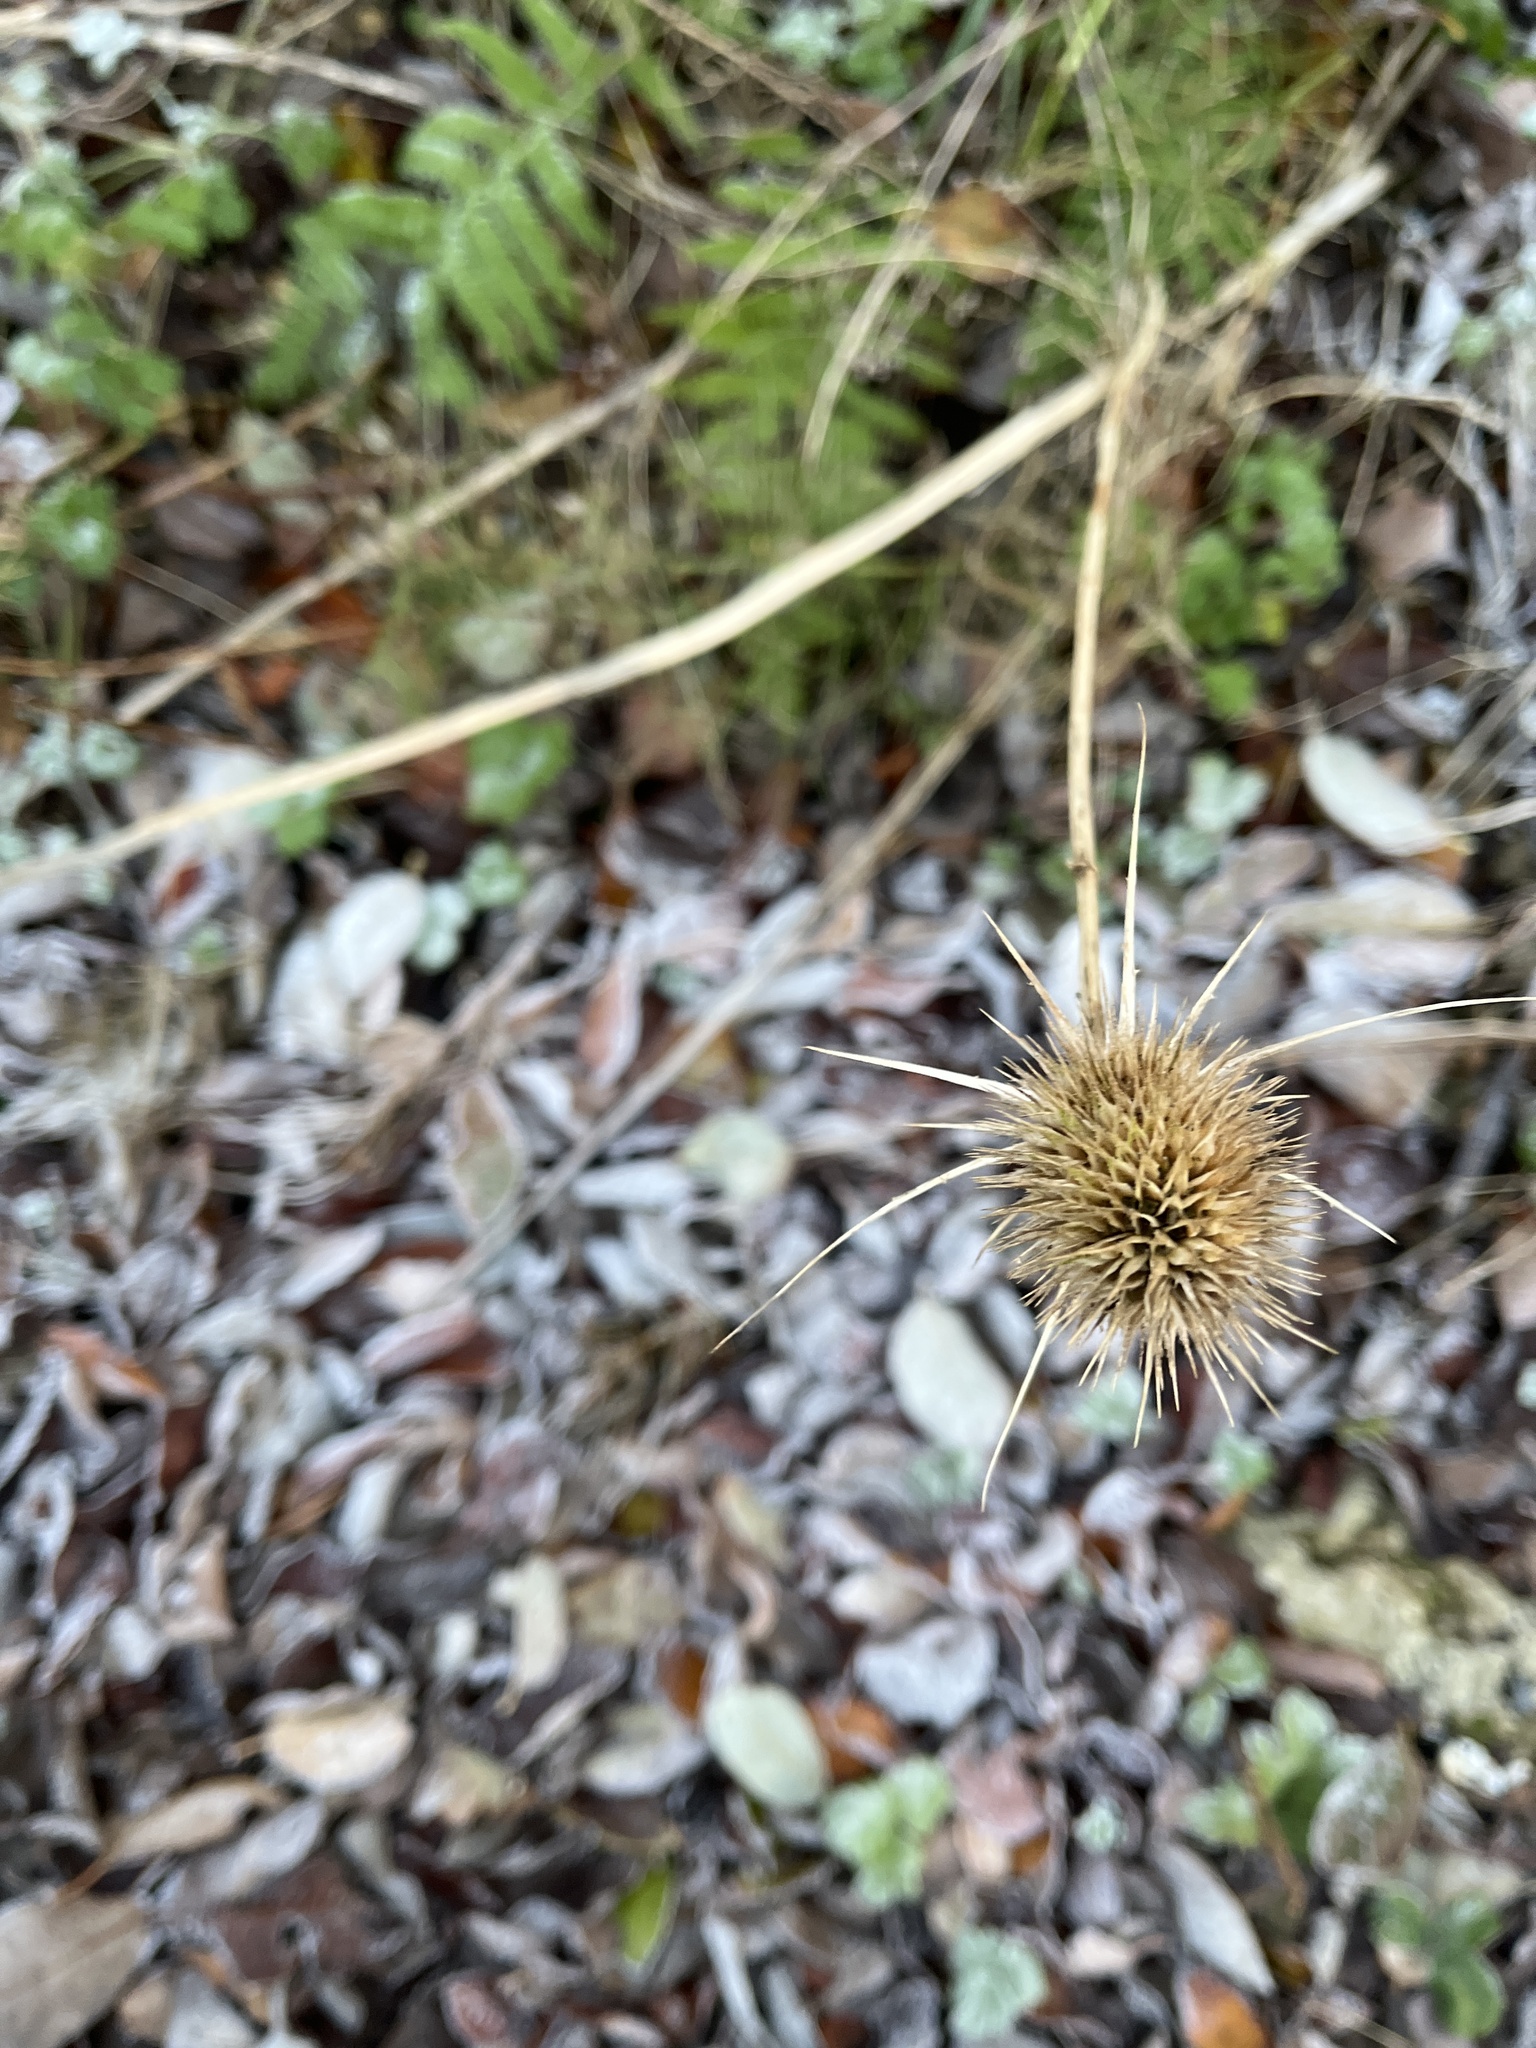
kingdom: Plantae
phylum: Tracheophyta
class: Magnoliopsida
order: Dipsacales
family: Caprifoliaceae
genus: Dipsacus
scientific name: Dipsacus fullonum
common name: Teasel
